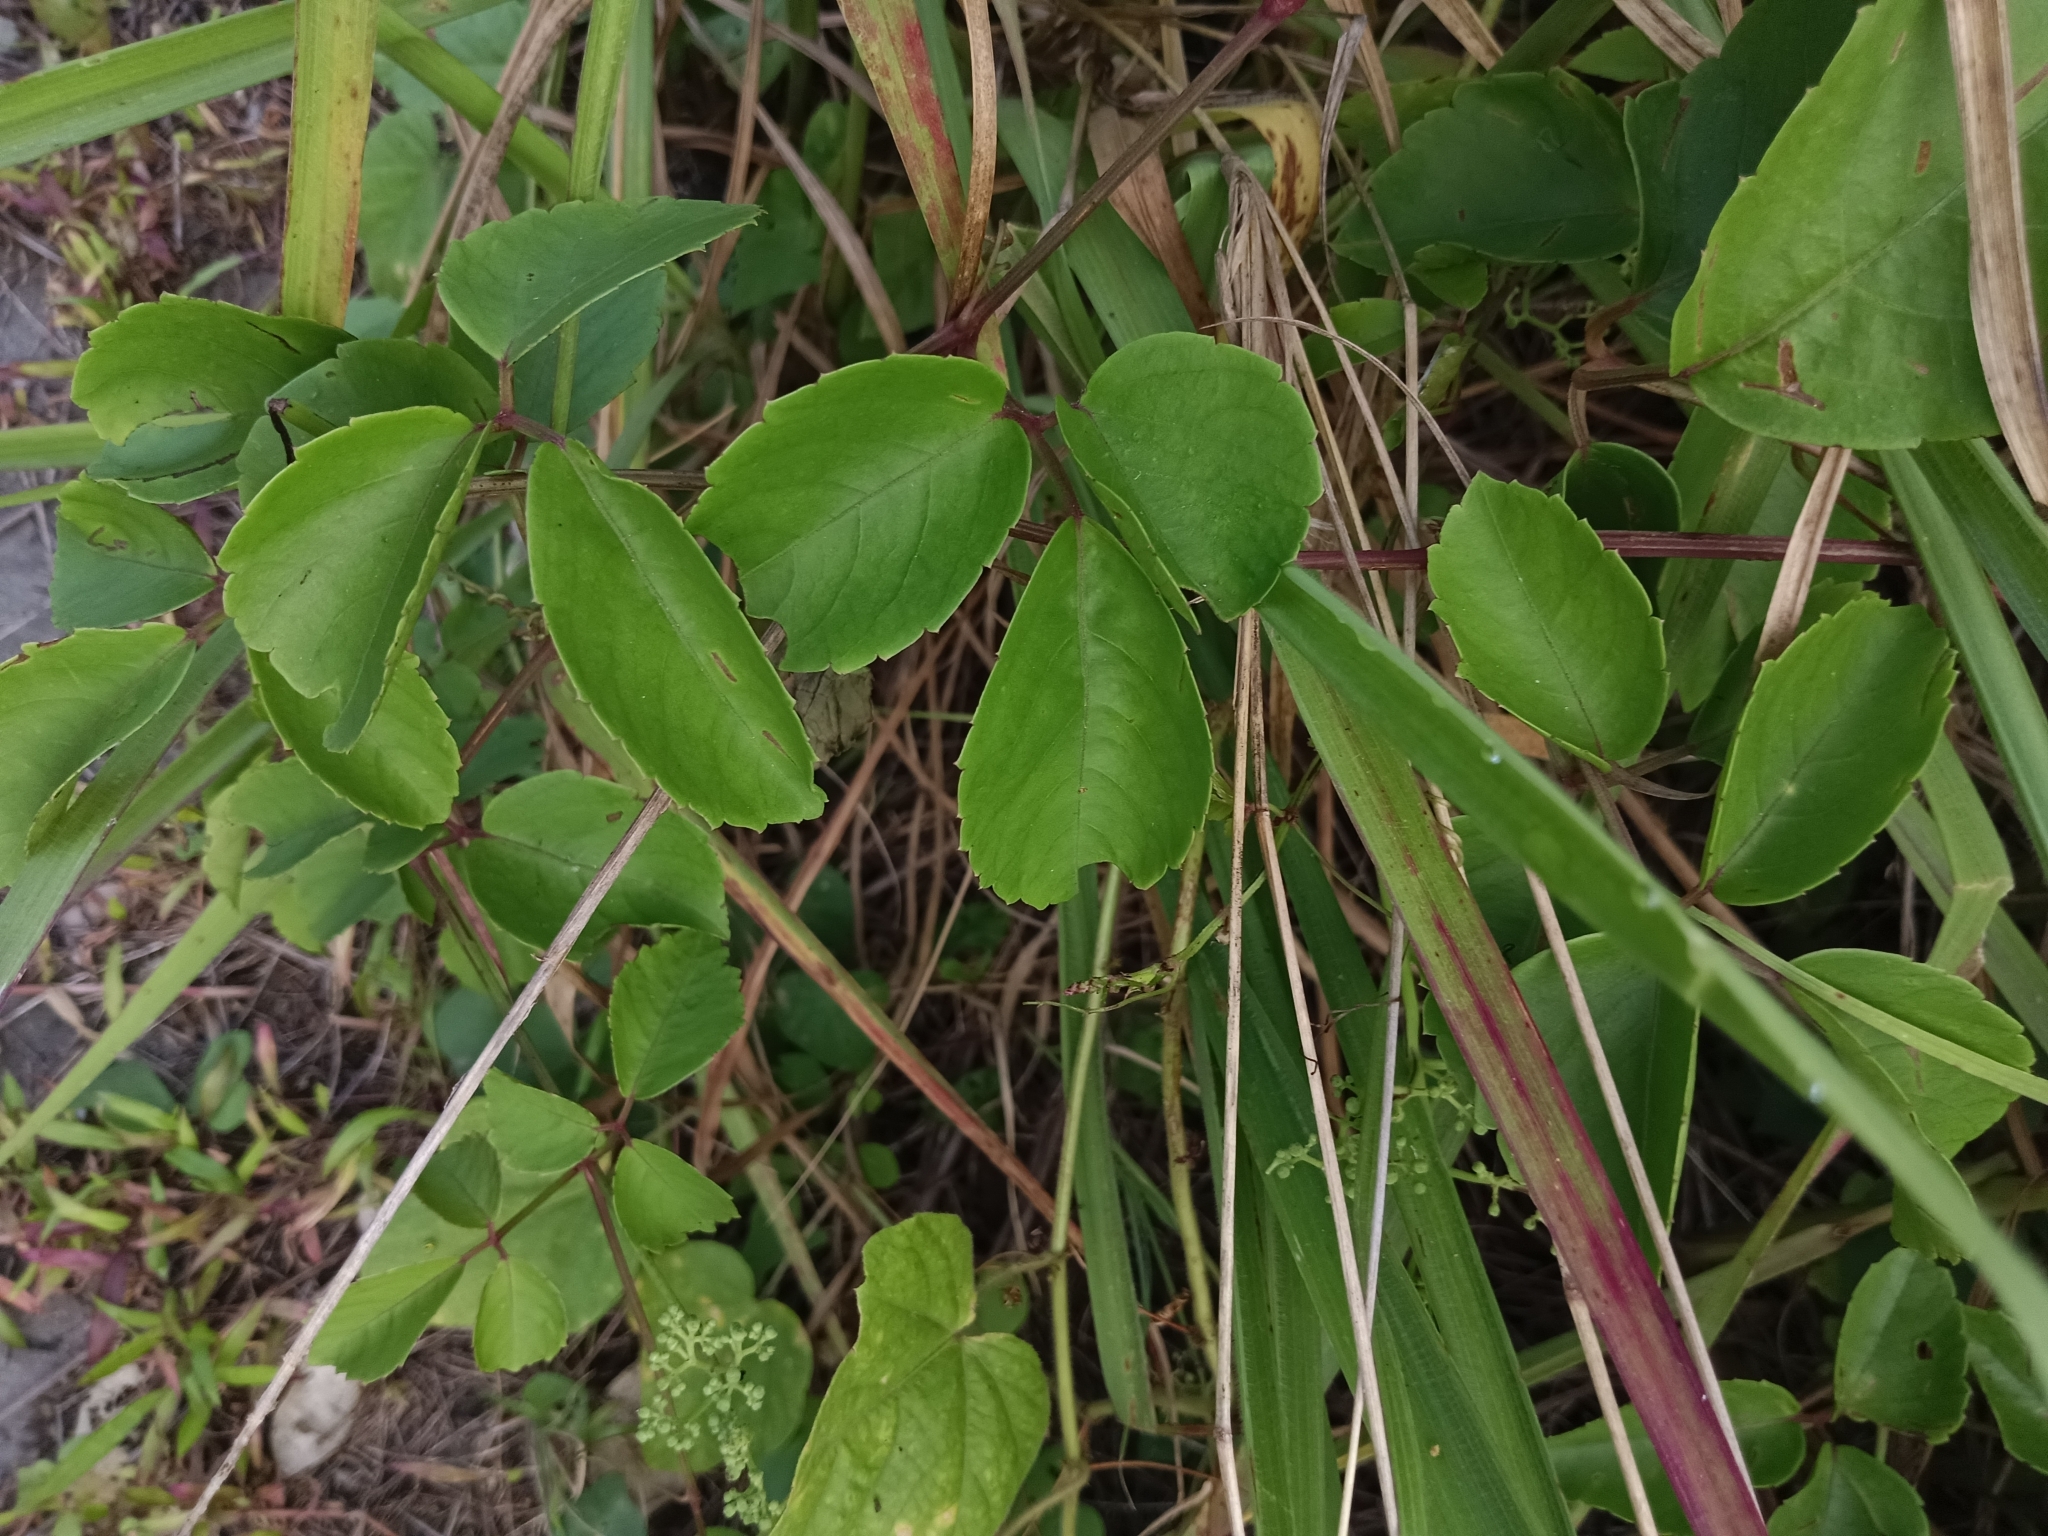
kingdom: Plantae
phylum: Tracheophyta
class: Magnoliopsida
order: Vitales
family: Vitaceae
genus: Causonis
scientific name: Causonis trifolia
